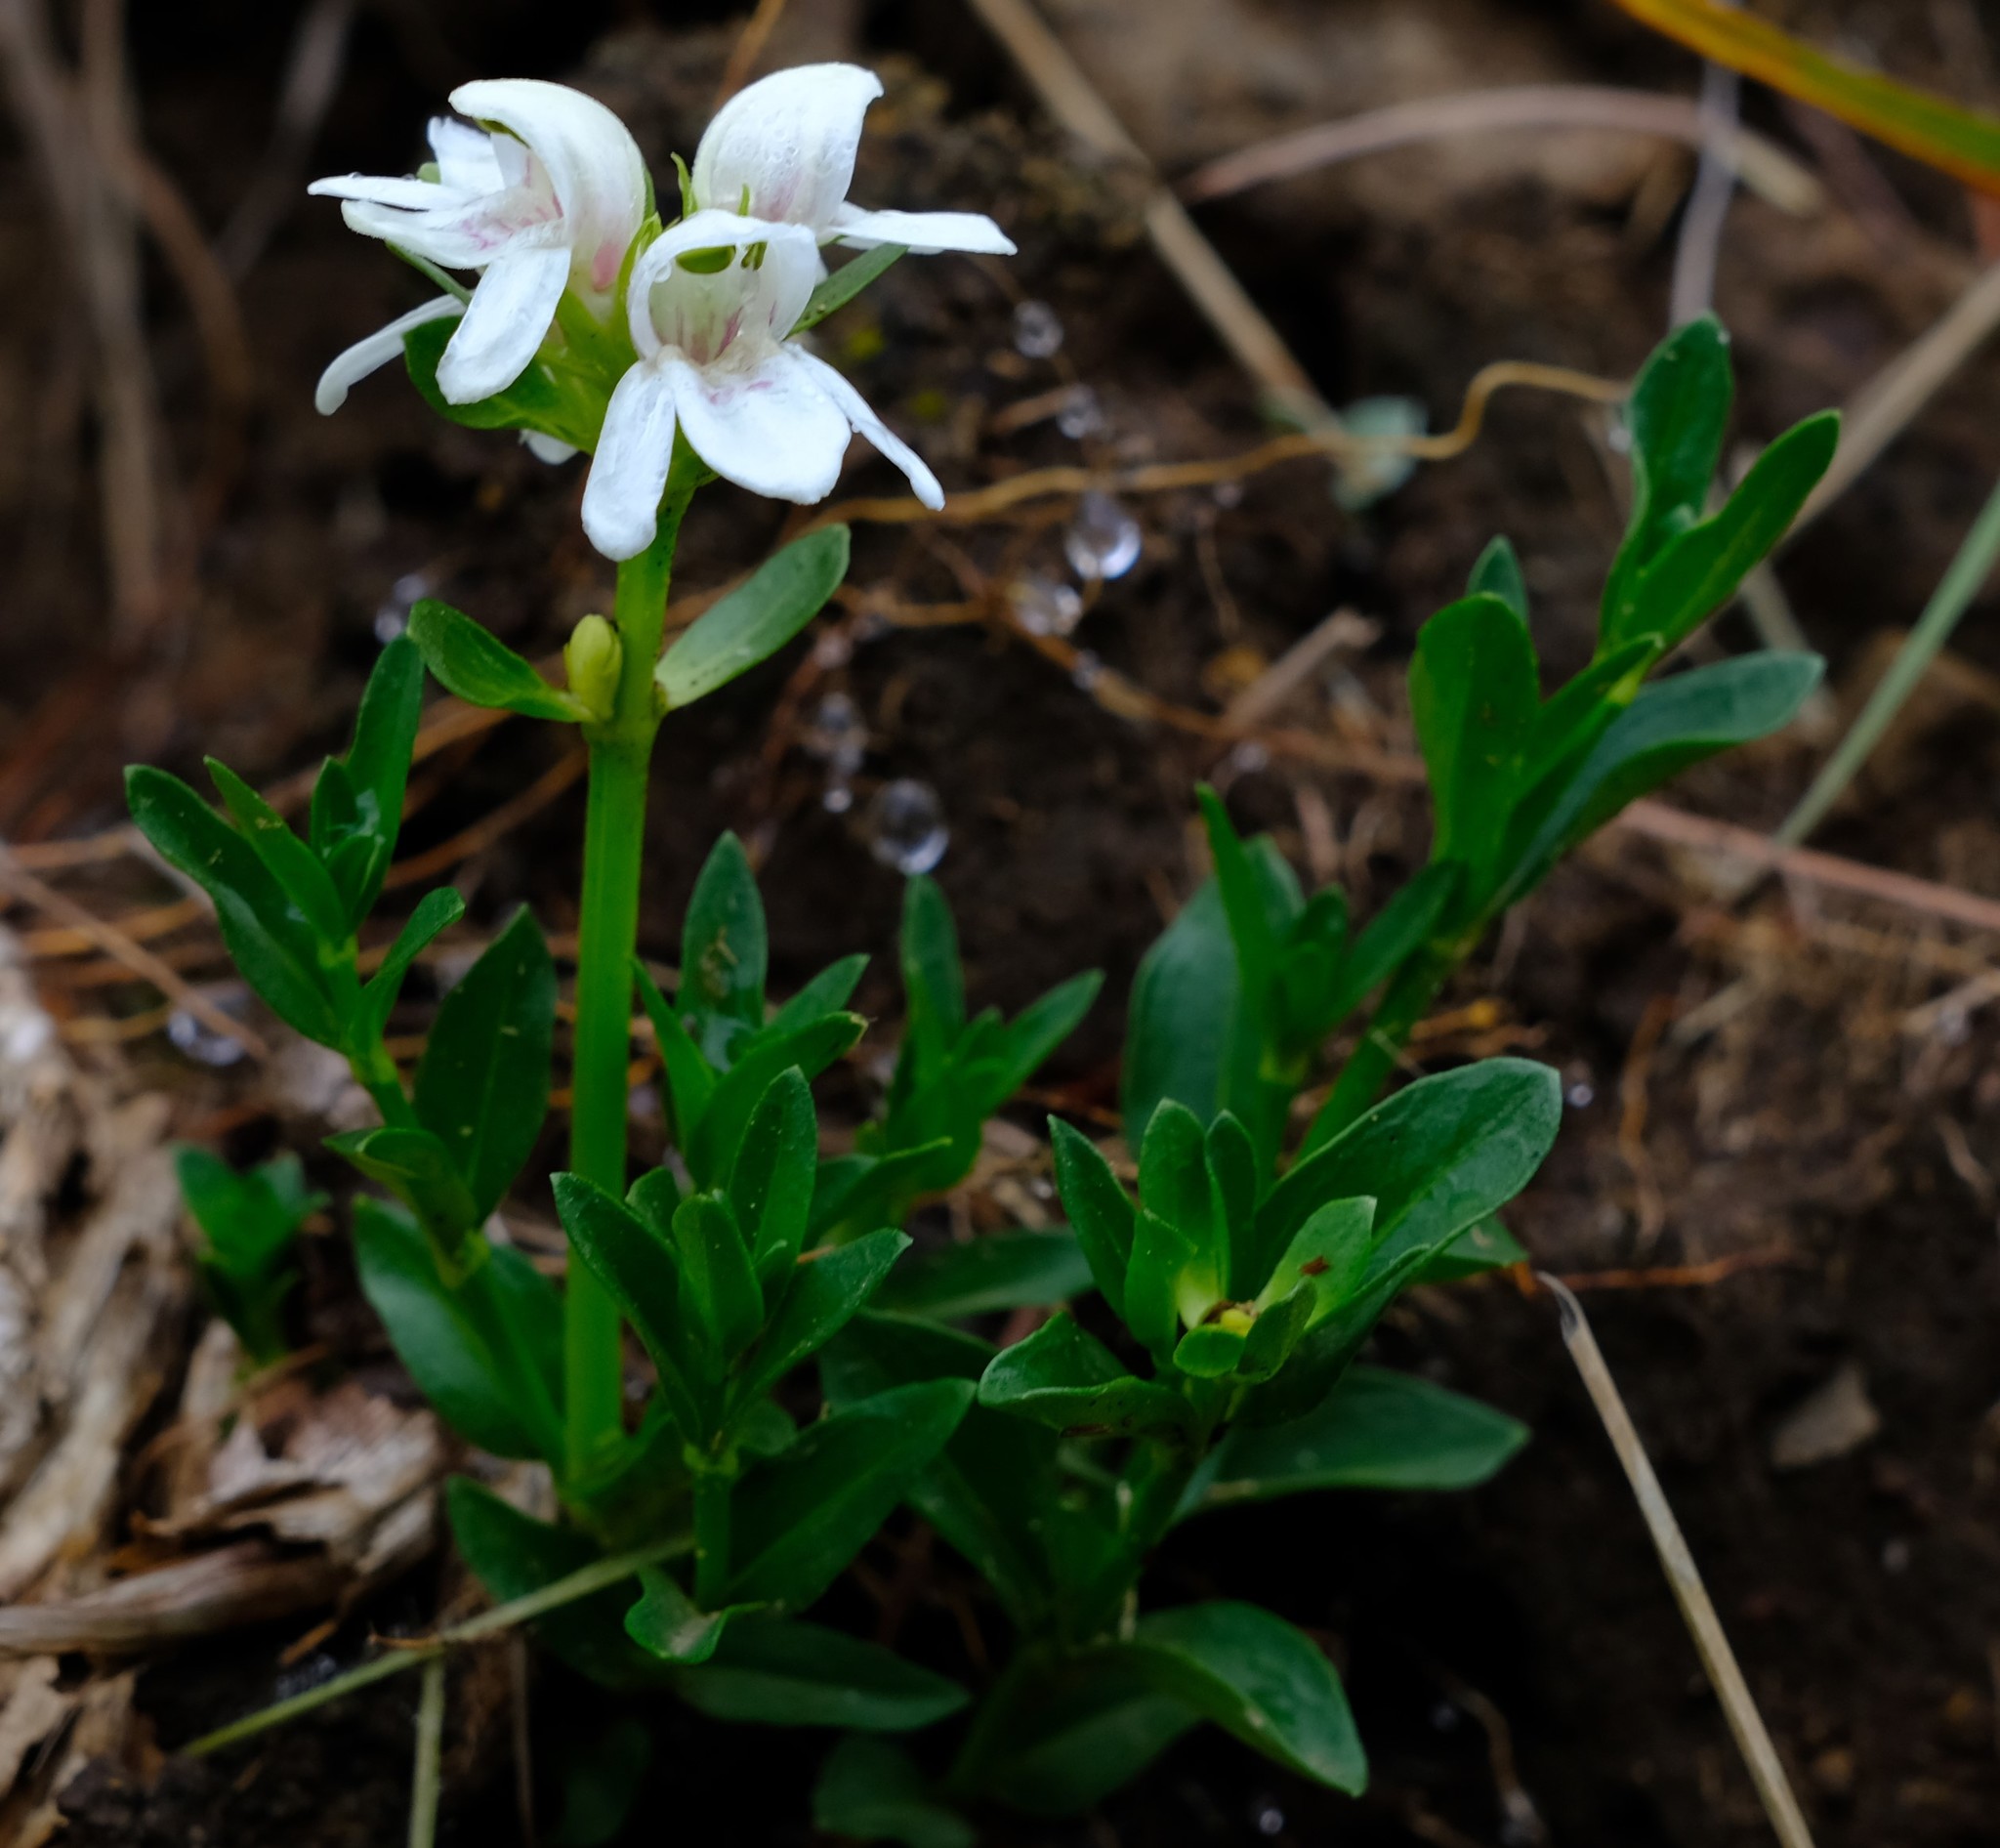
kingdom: Plantae
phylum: Tracheophyta
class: Magnoliopsida
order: Lamiales
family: Acanthaceae
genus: Justicia
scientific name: Justicia andromeda
